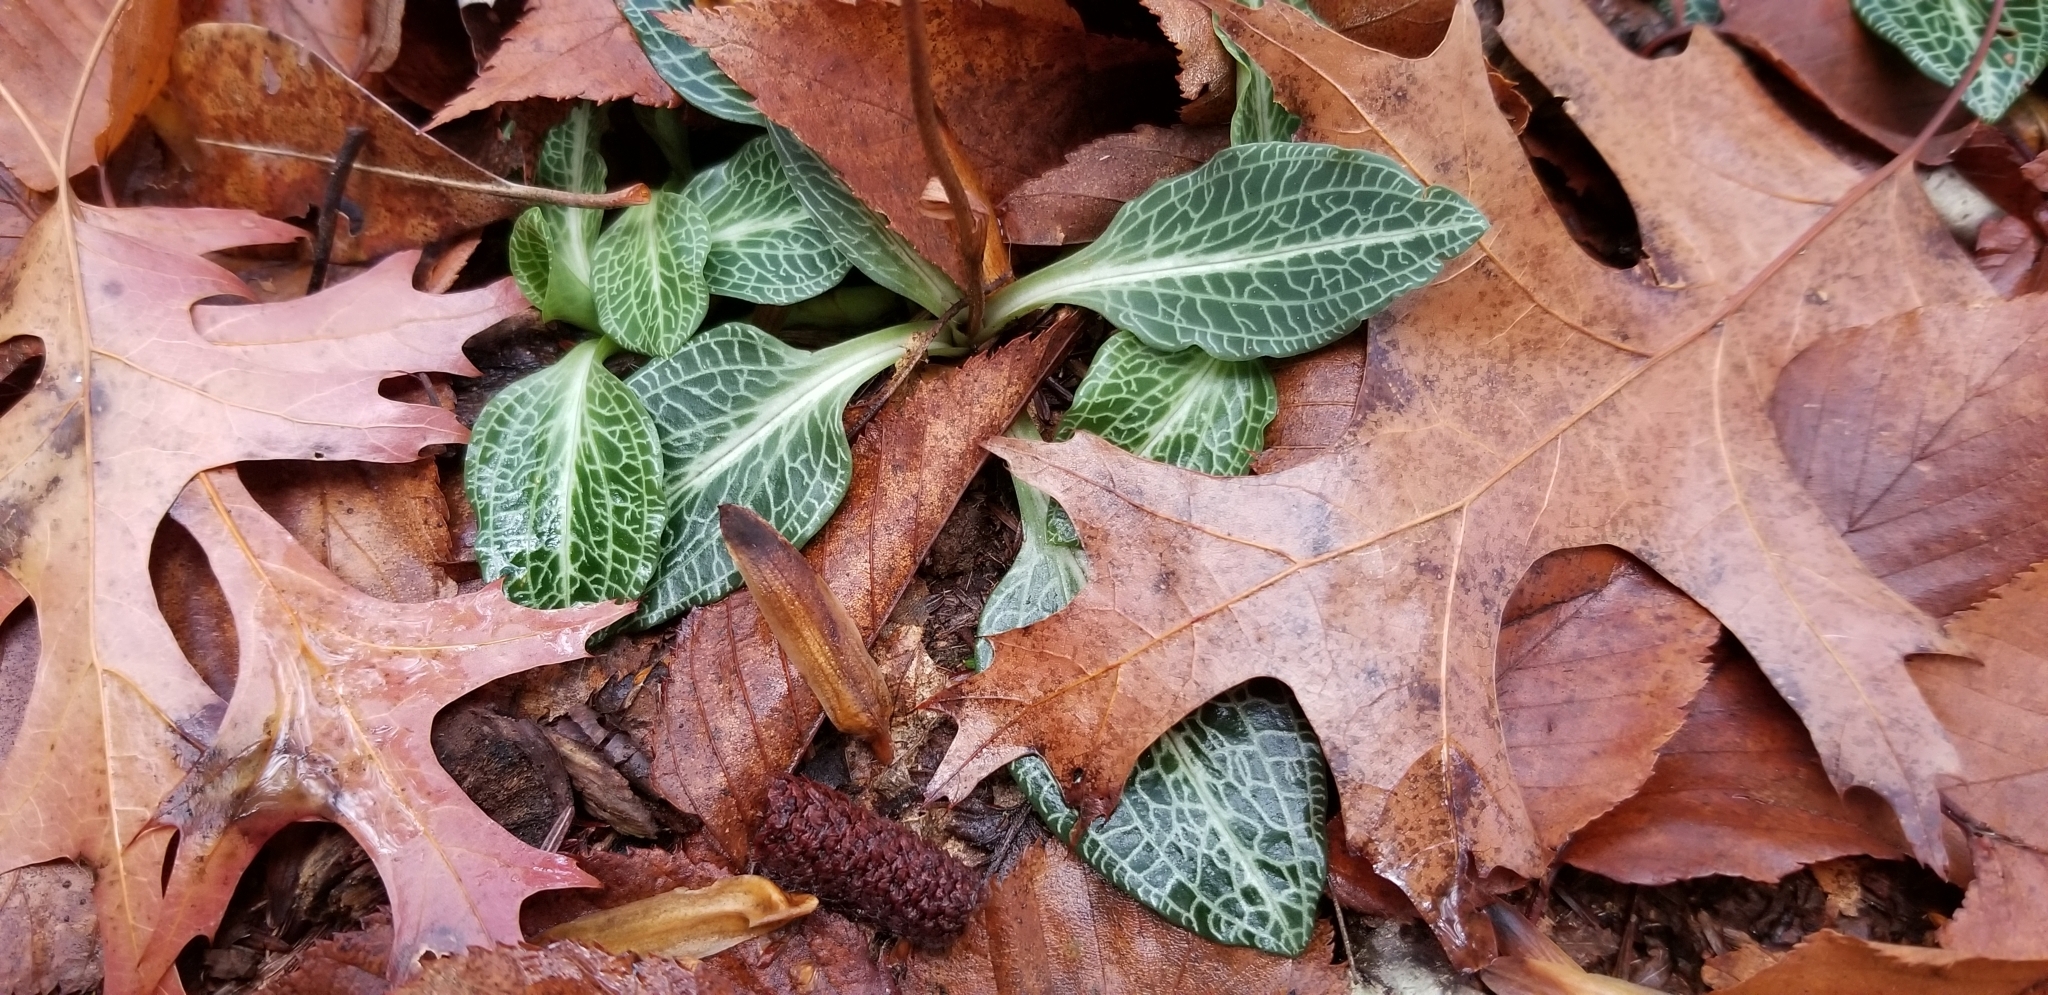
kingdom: Plantae
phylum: Tracheophyta
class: Liliopsida
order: Asparagales
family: Orchidaceae
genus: Goodyera
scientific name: Goodyera pubescens
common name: Downy rattlesnake-plantain
